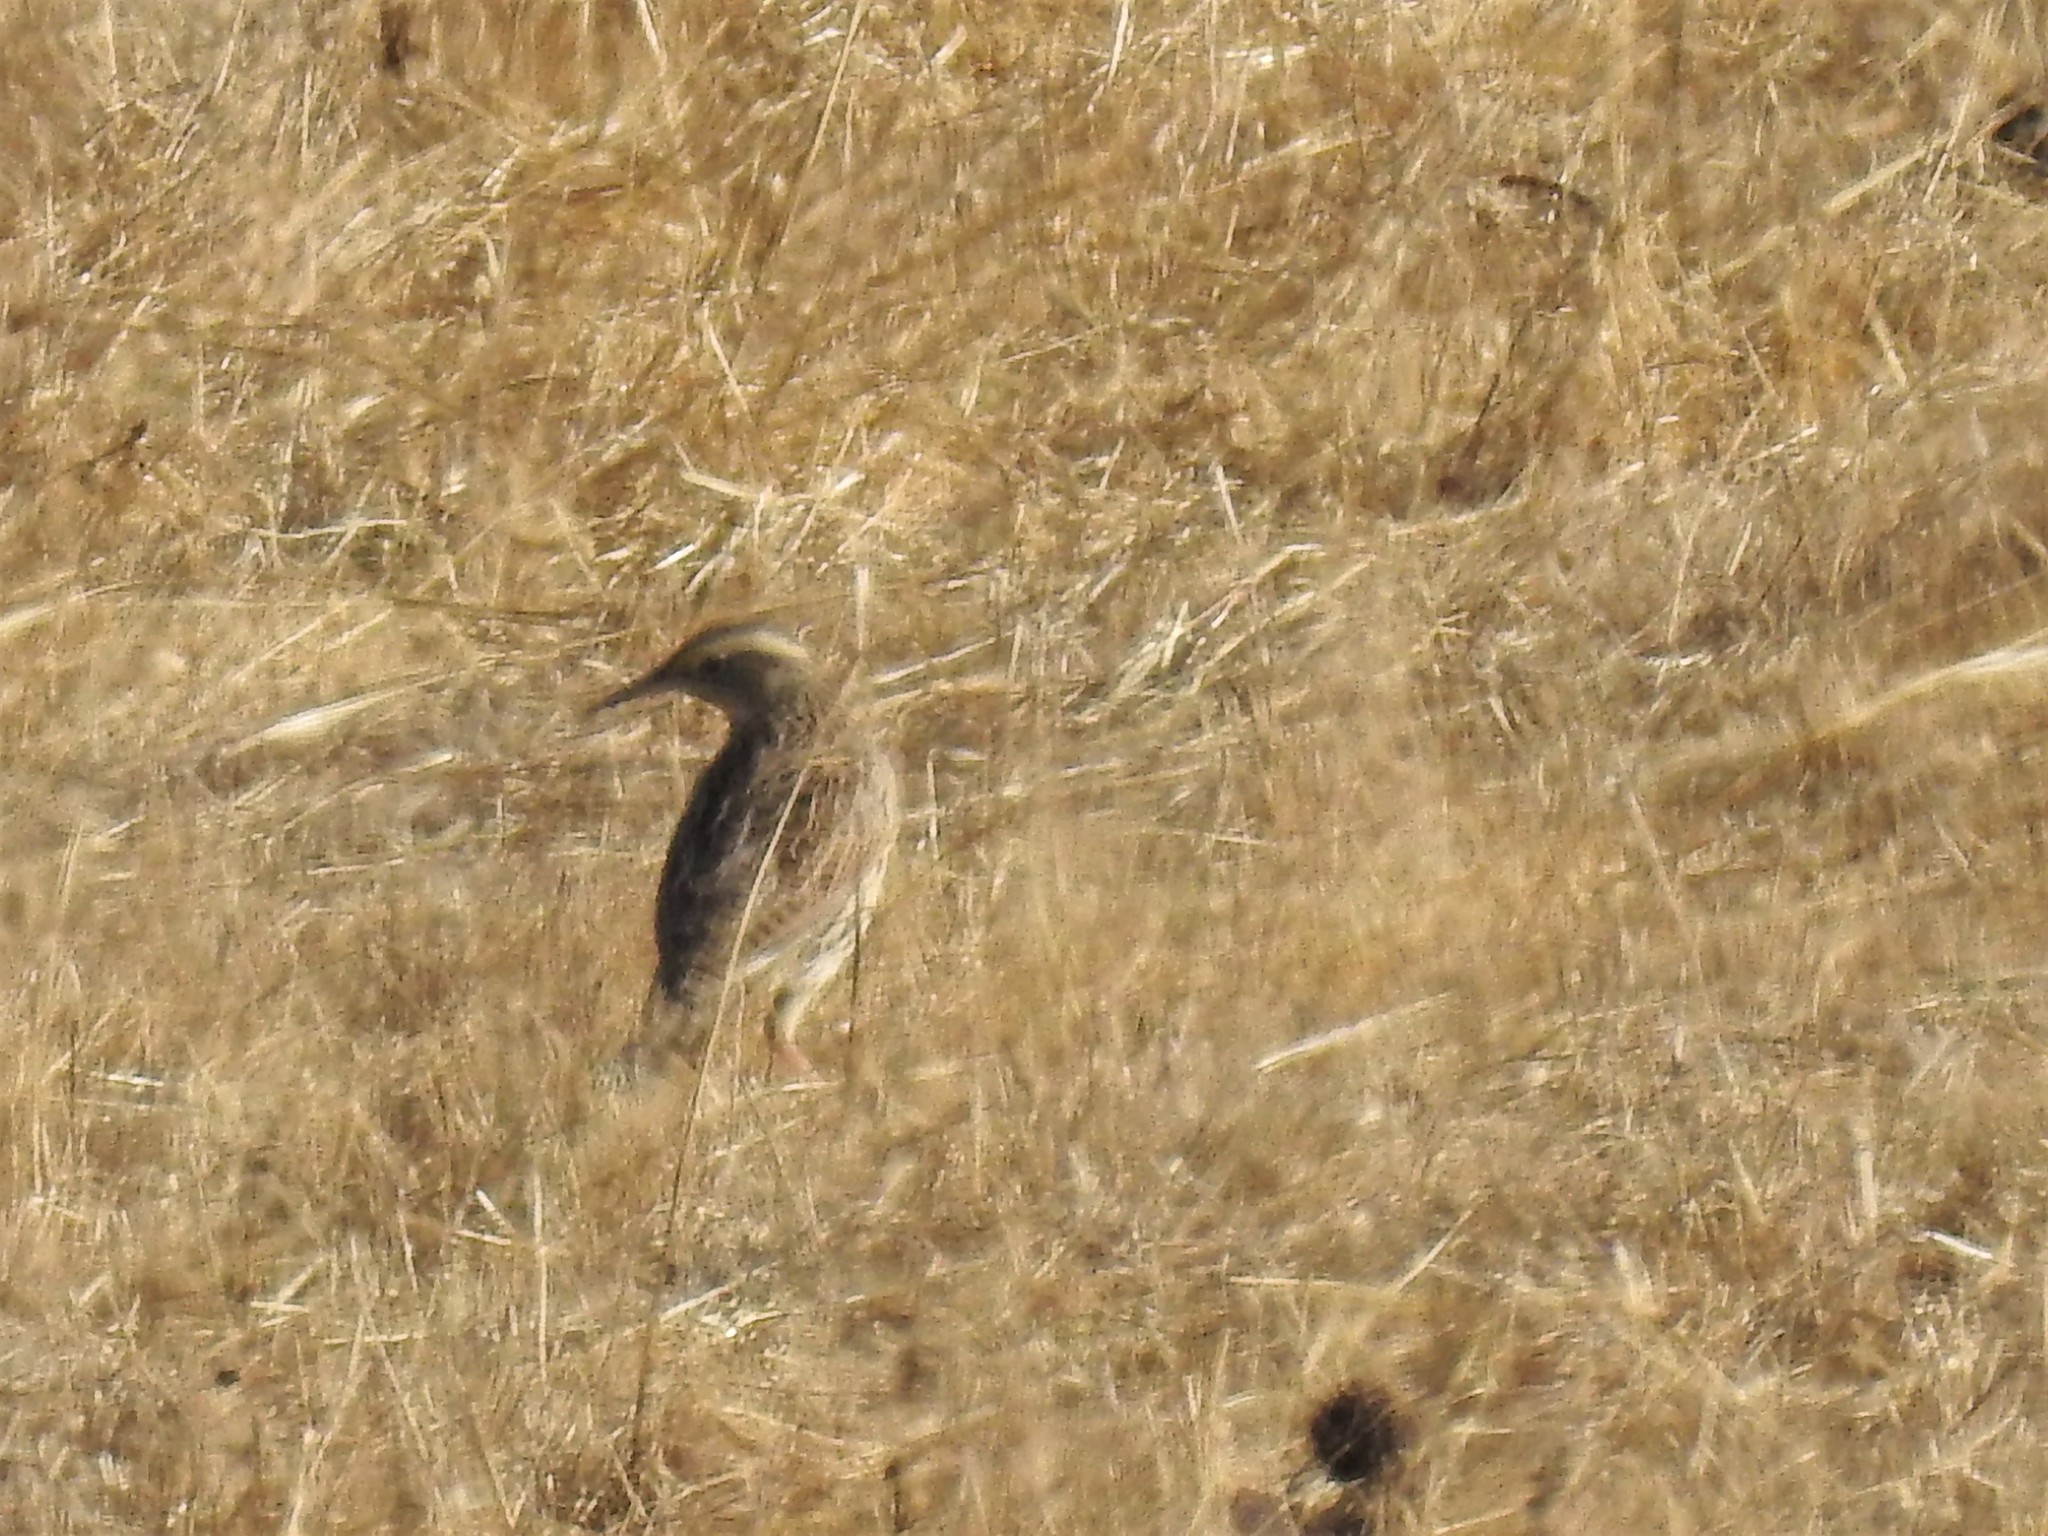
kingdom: Animalia
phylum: Chordata
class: Aves
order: Passeriformes
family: Icteridae
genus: Sturnella
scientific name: Sturnella neglecta
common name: Western meadowlark
